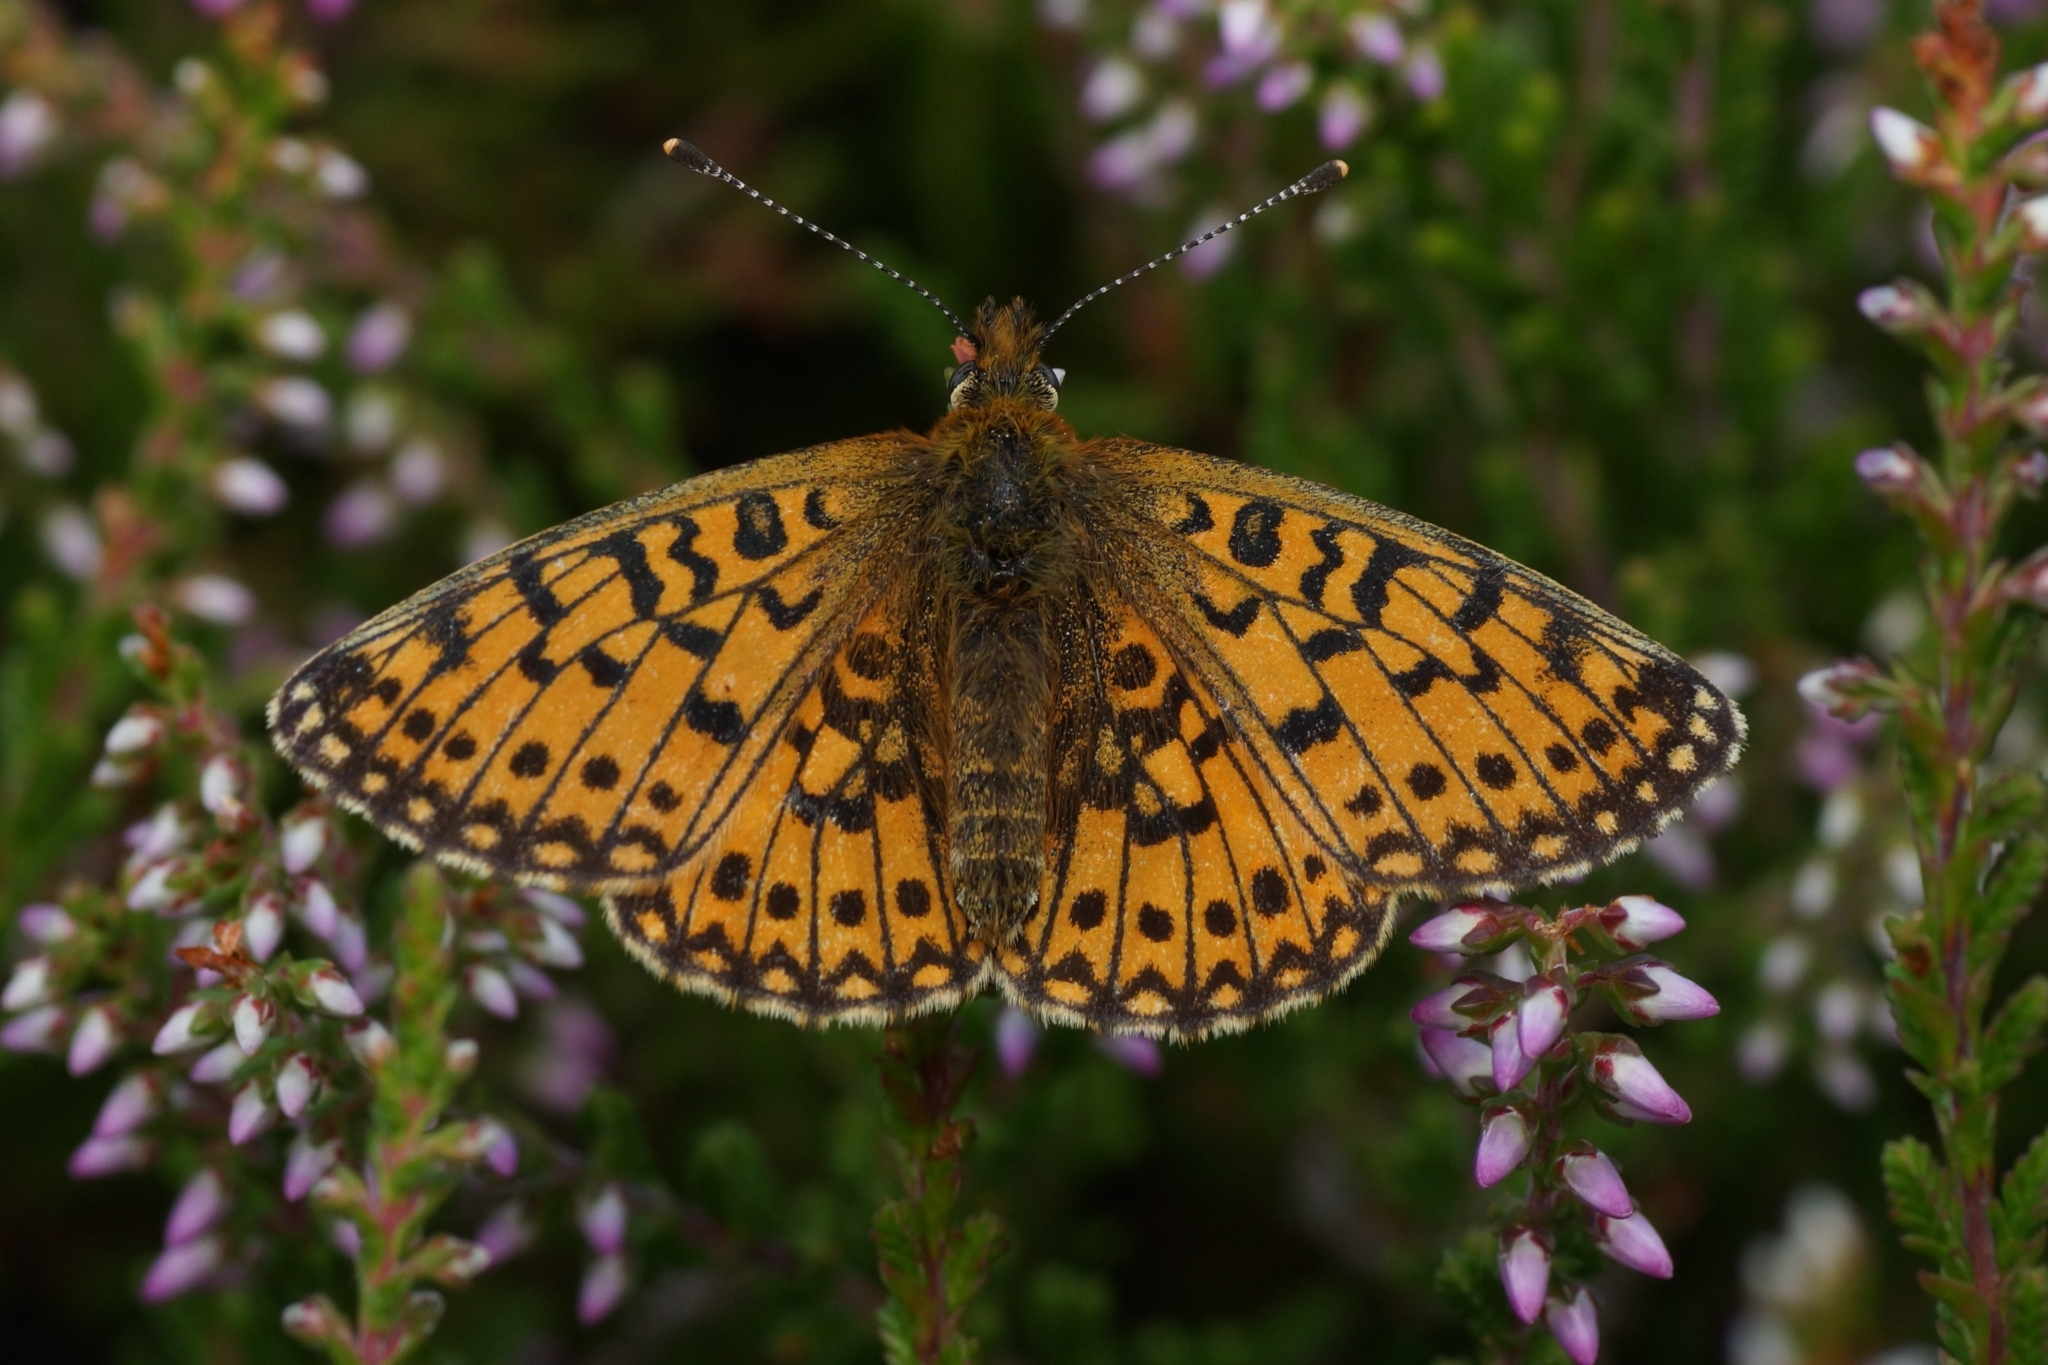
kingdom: Animalia
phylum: Arthropoda
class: Insecta
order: Lepidoptera
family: Nymphalidae
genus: Boloria
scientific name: Boloria selene
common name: Small pearl-bordered fritillary
